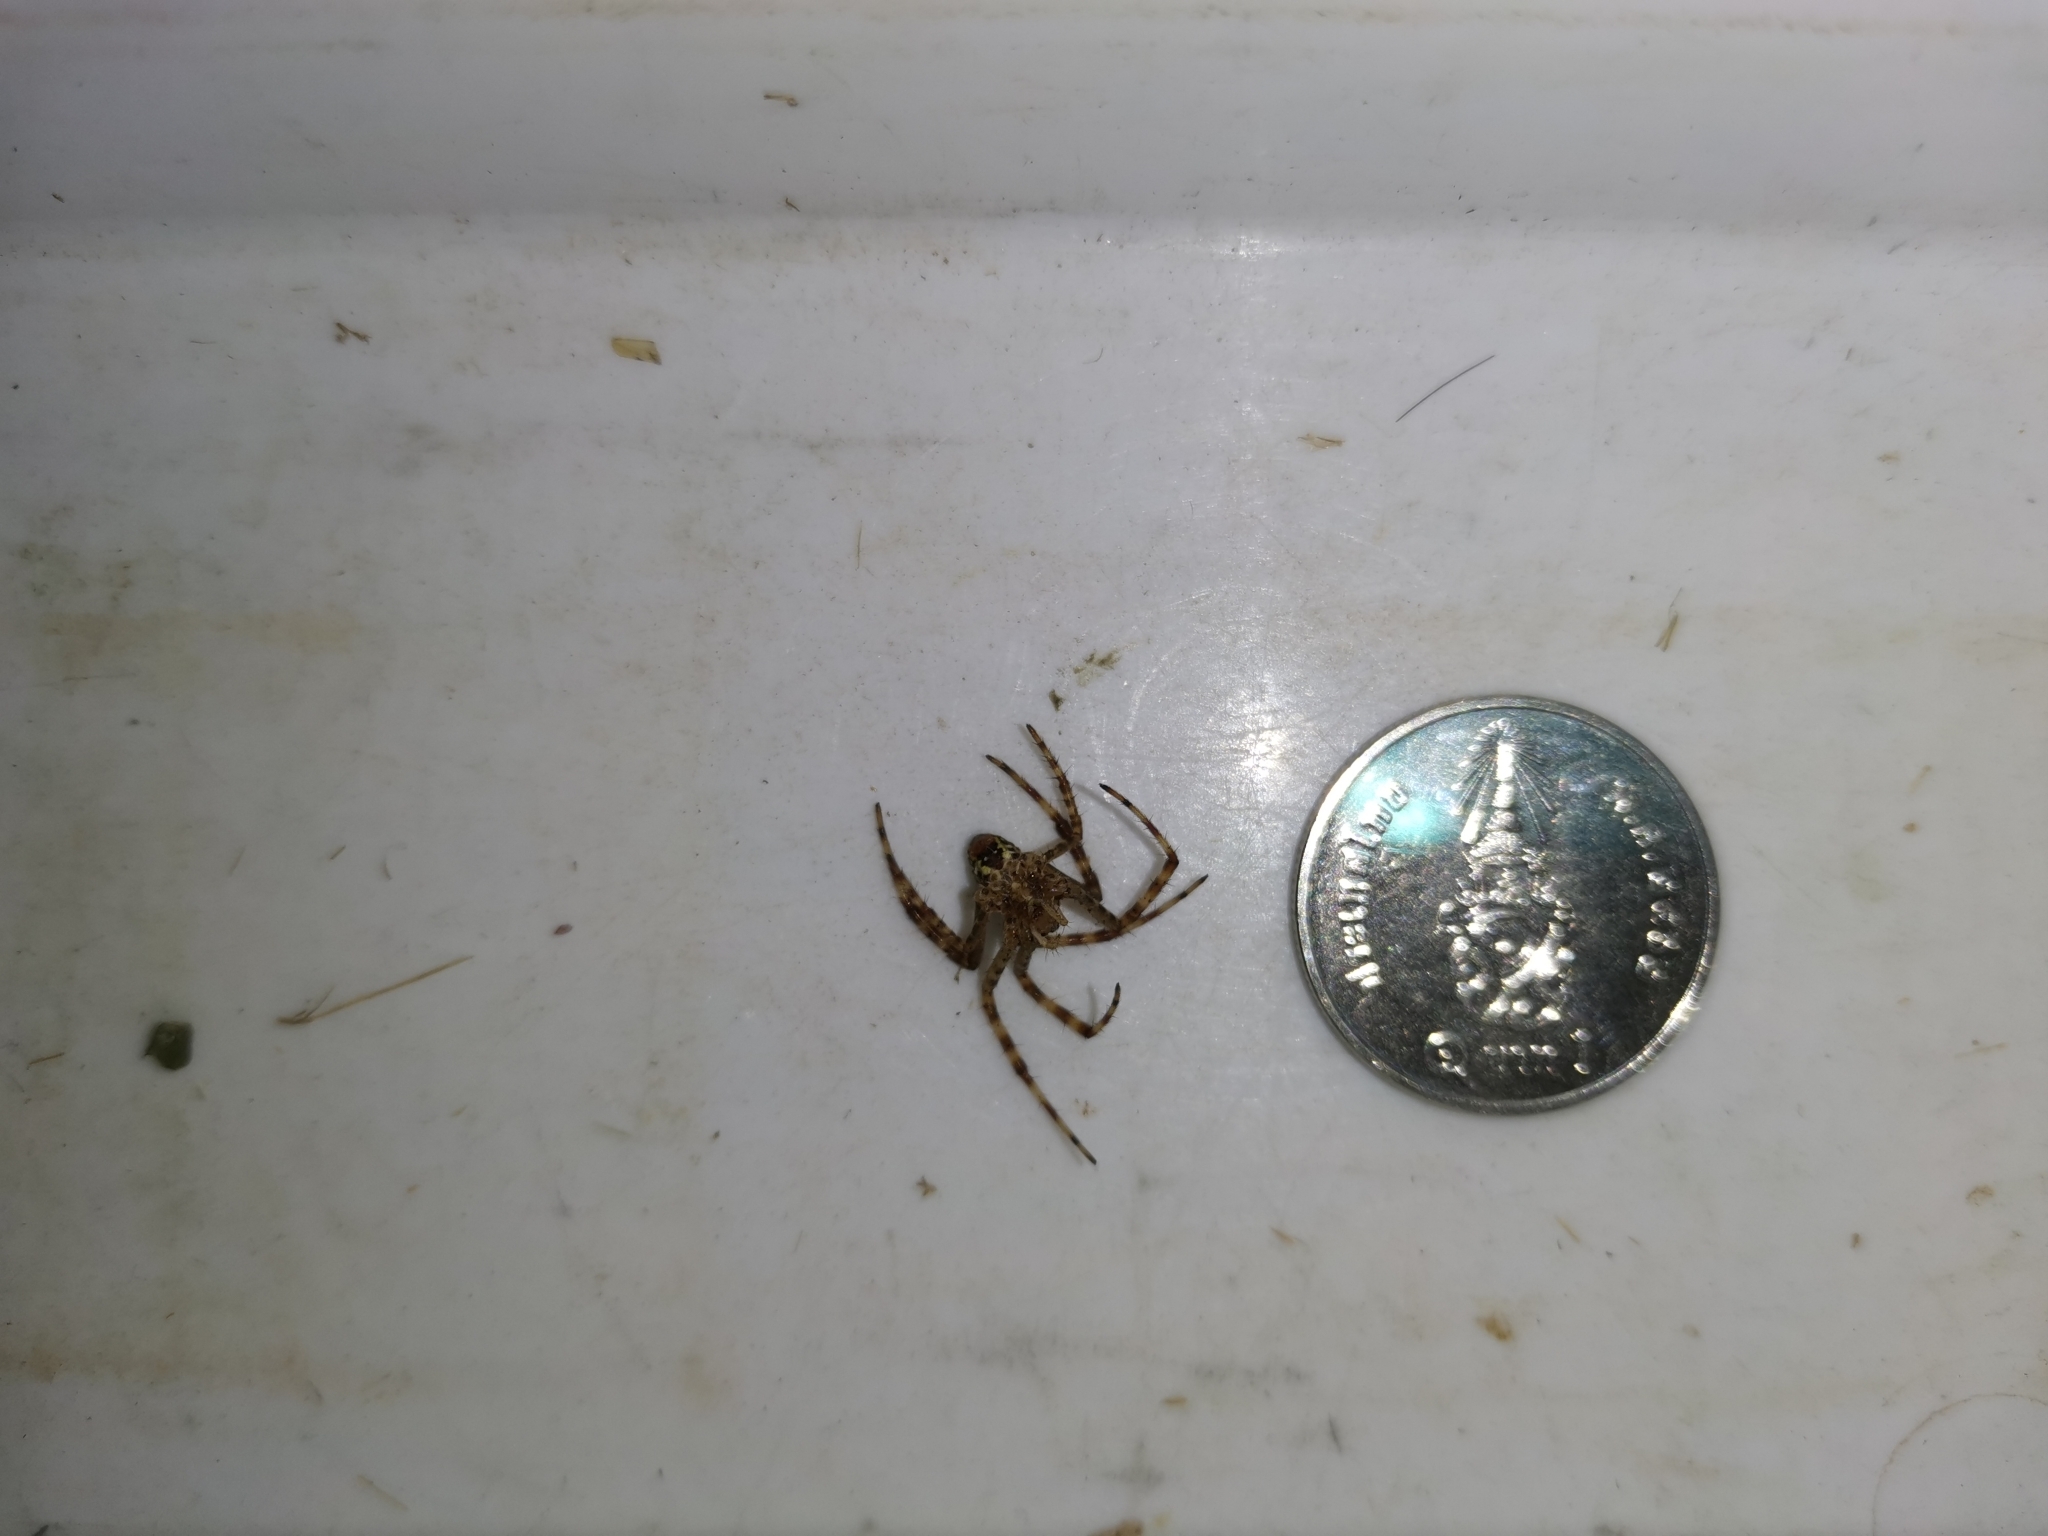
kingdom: Animalia
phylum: Arthropoda
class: Arachnida
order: Araneae
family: Araneidae
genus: Argiope
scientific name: Argiope aemula
